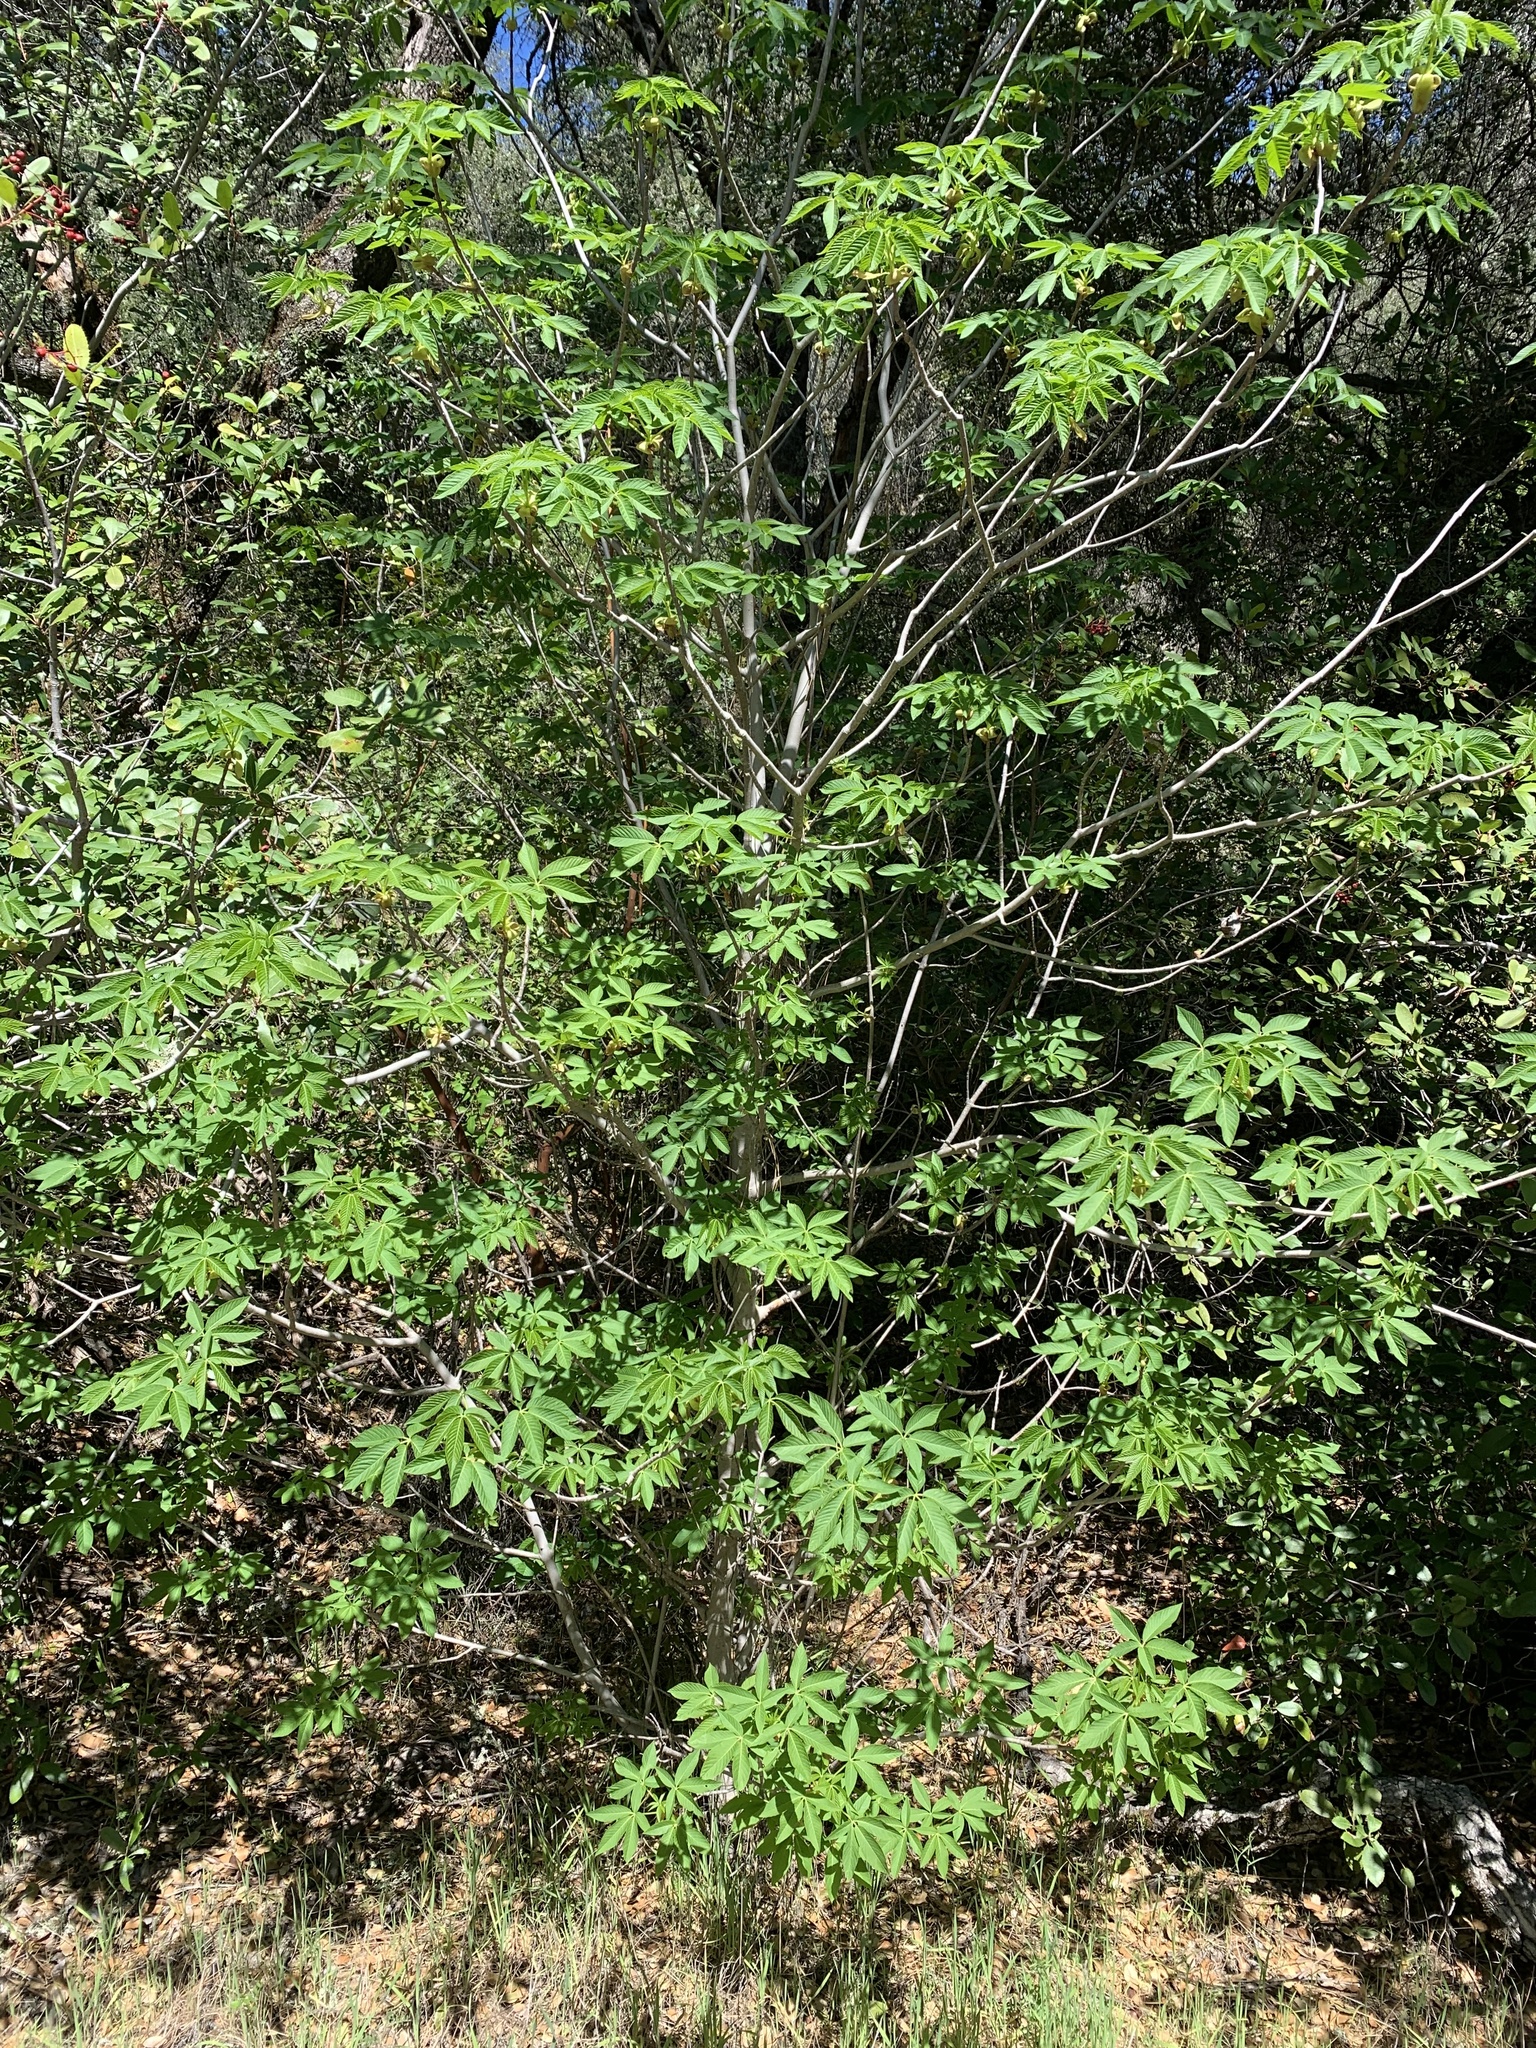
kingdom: Plantae
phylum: Tracheophyta
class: Magnoliopsida
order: Sapindales
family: Sapindaceae
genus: Aesculus
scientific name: Aesculus californica
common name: California buckeye
